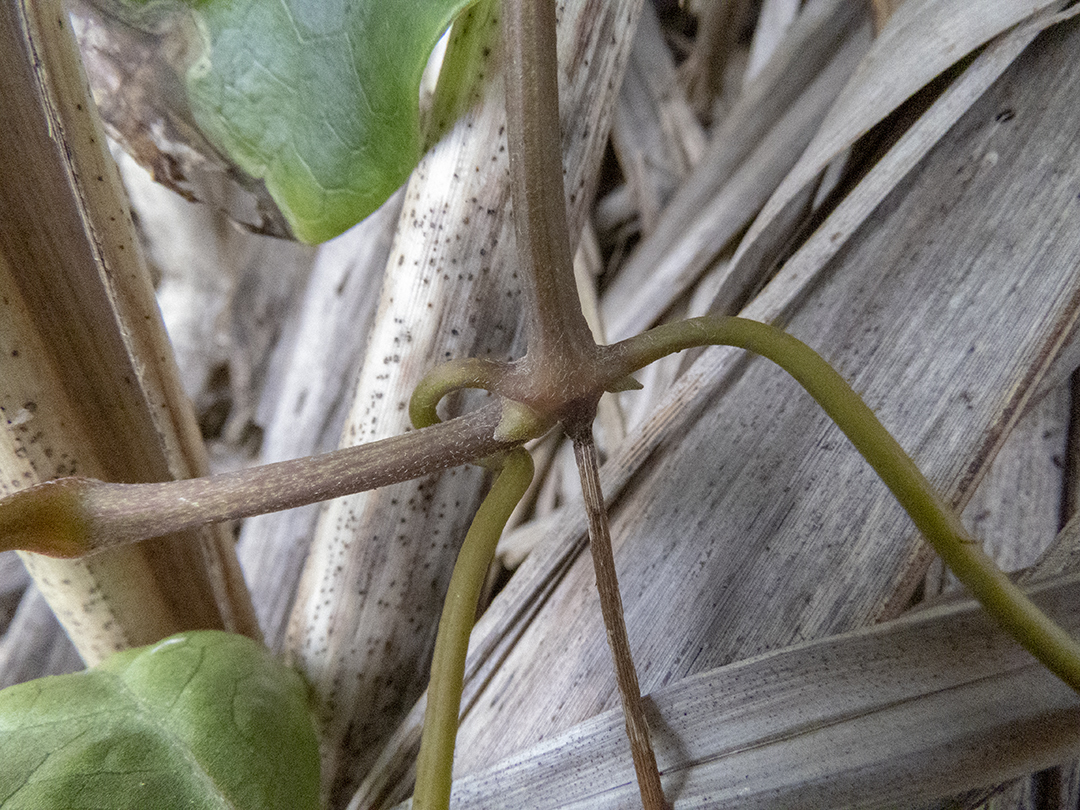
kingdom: Plantae
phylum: Tracheophyta
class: Magnoliopsida
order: Ranunculales
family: Ranunculaceae
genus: Clematis
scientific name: Clematis paniculata
